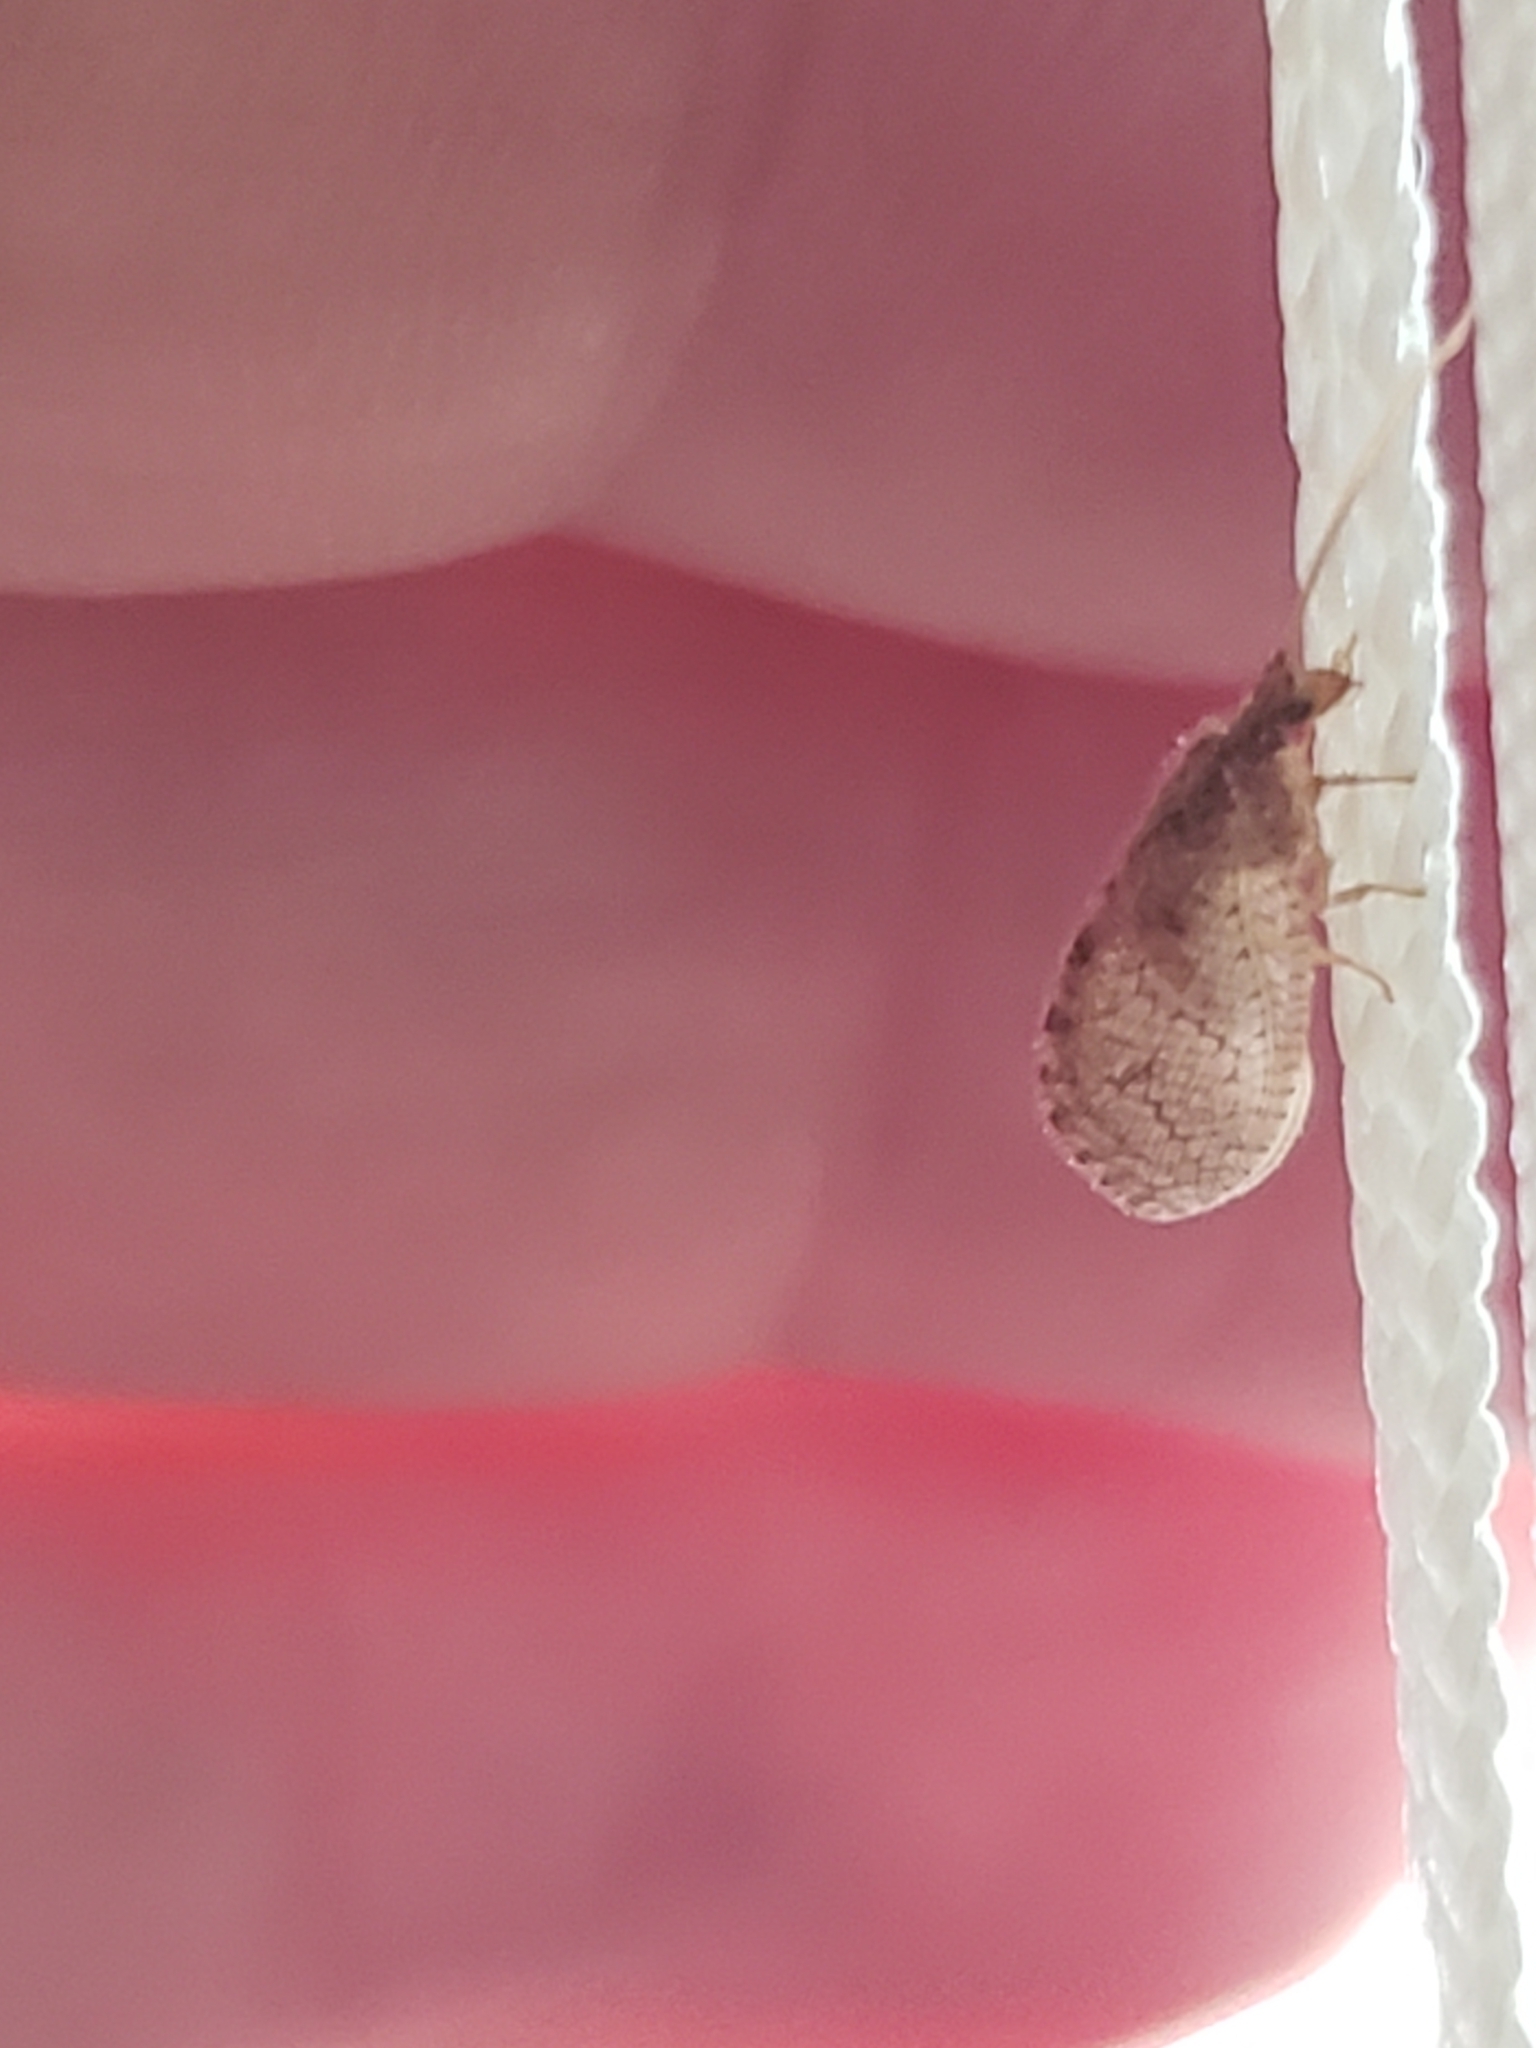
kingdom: Animalia
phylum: Arthropoda
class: Insecta
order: Neuroptera
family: Hemerobiidae
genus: Micromus
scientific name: Micromus posticus
